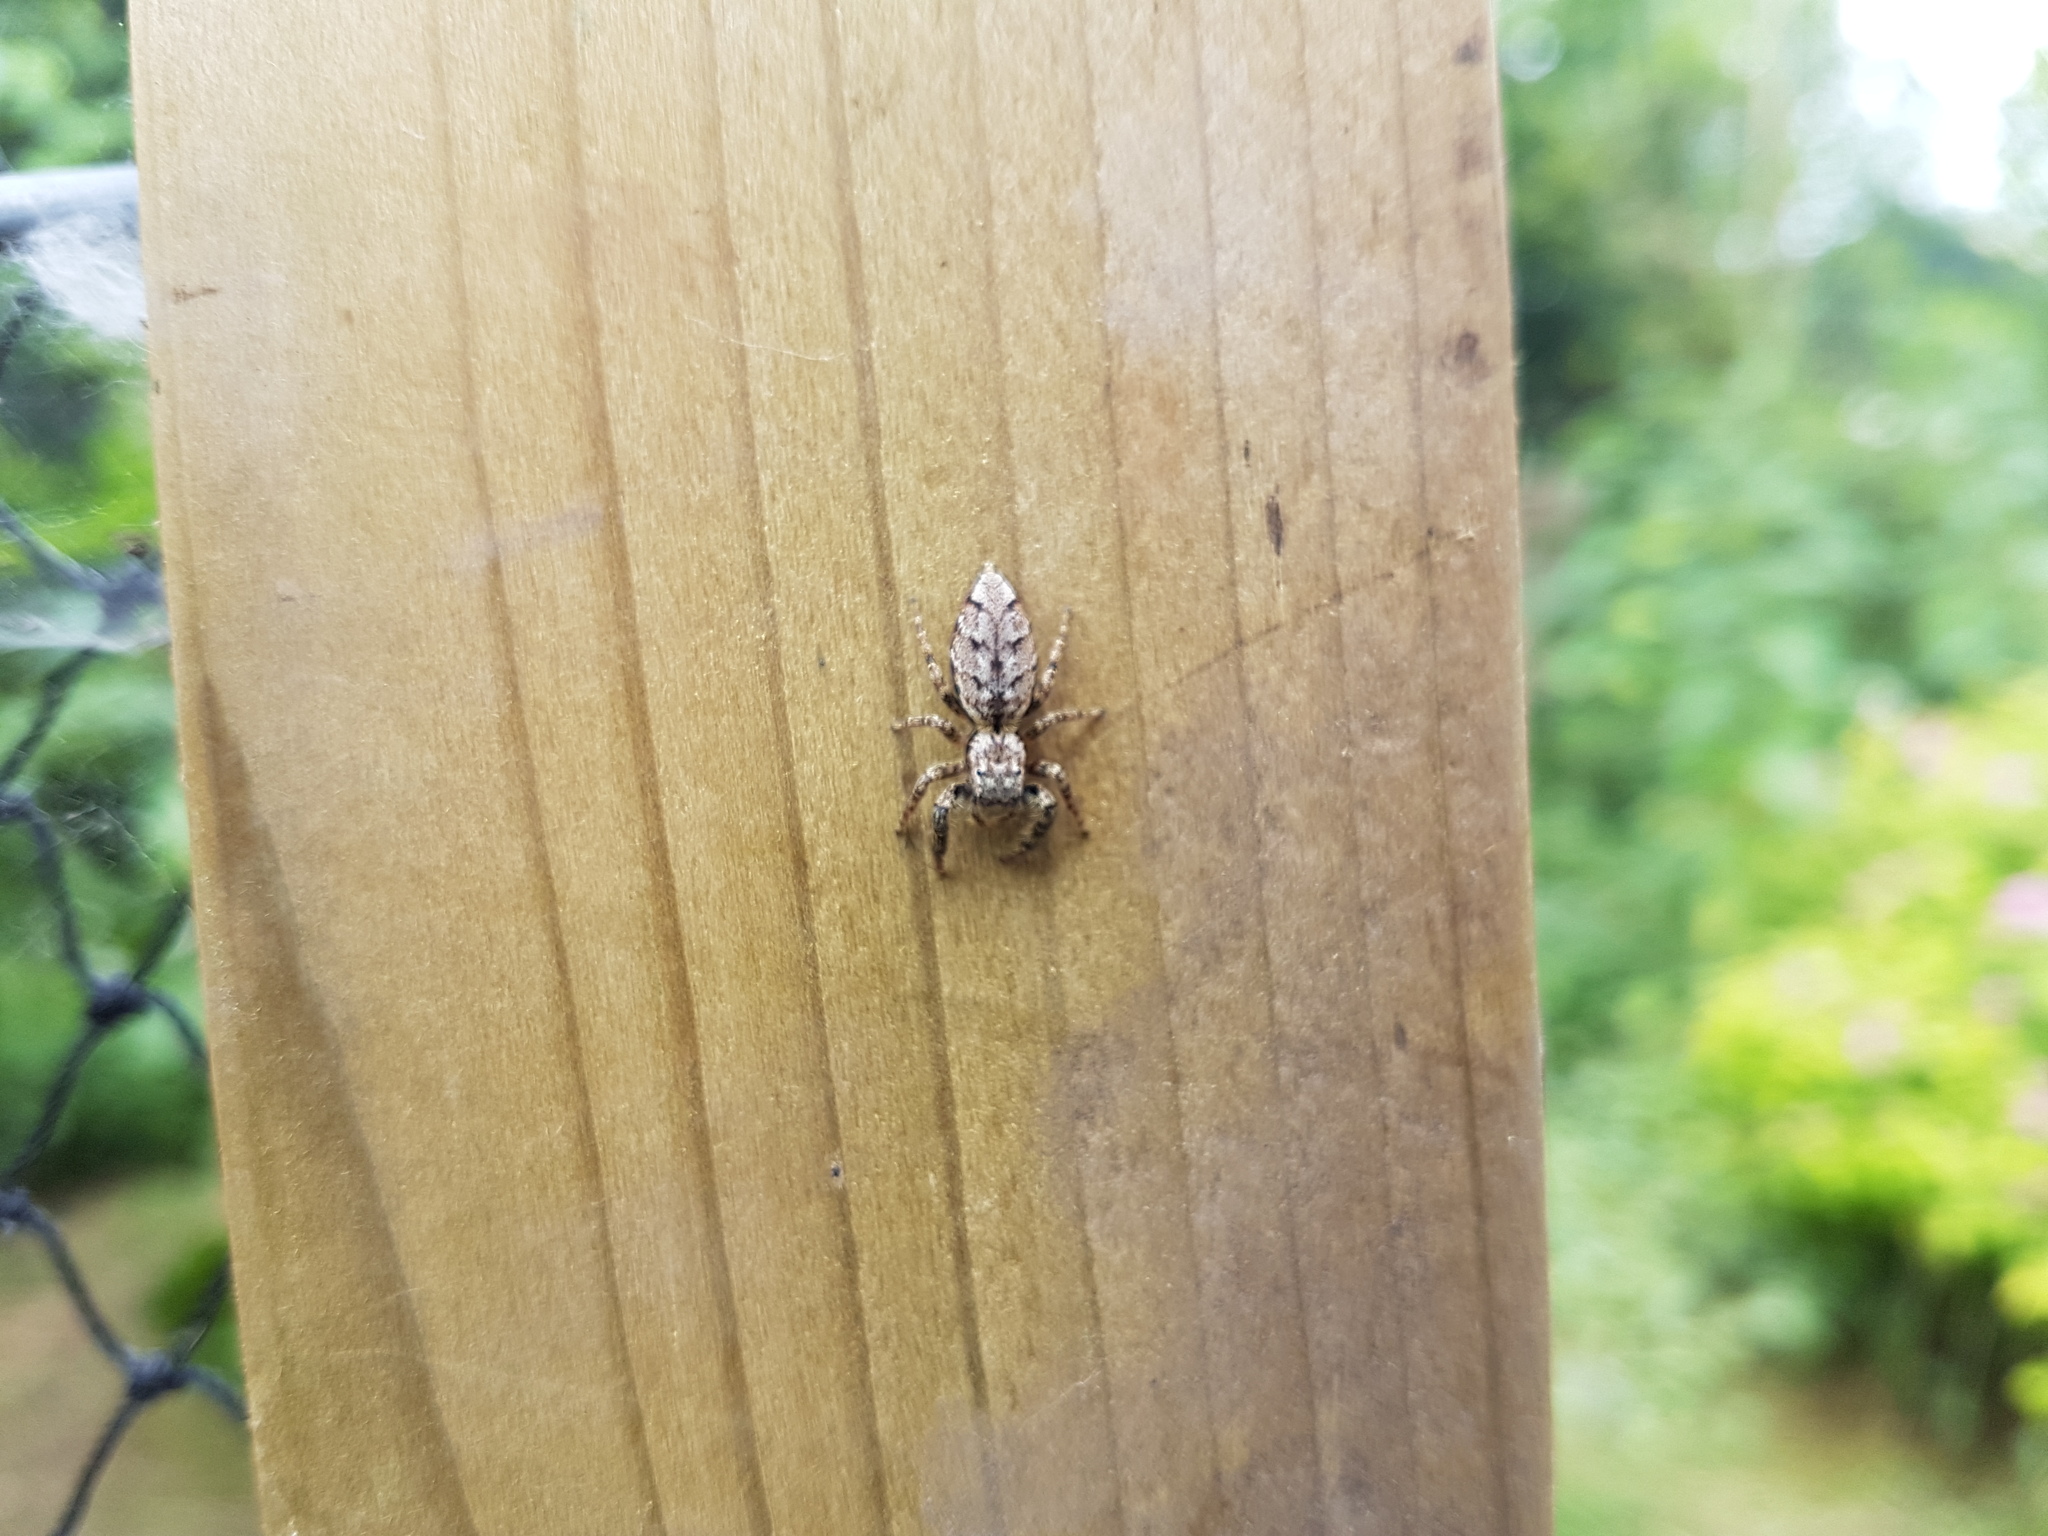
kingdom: Animalia
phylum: Arthropoda
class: Arachnida
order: Araneae
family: Salticidae
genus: Marpissa
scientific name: Marpissa muscosa
